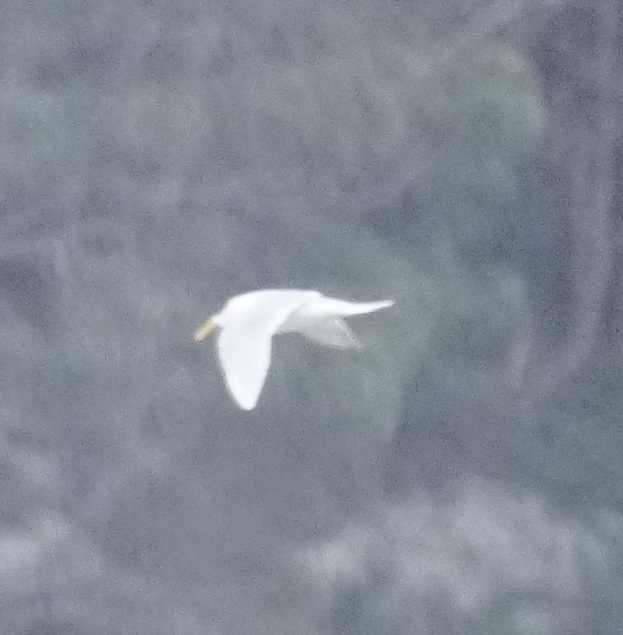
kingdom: Animalia
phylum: Chordata
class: Aves
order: Charadriiformes
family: Laridae
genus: Thalasseus
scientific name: Thalasseus bergii
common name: Greater crested tern
